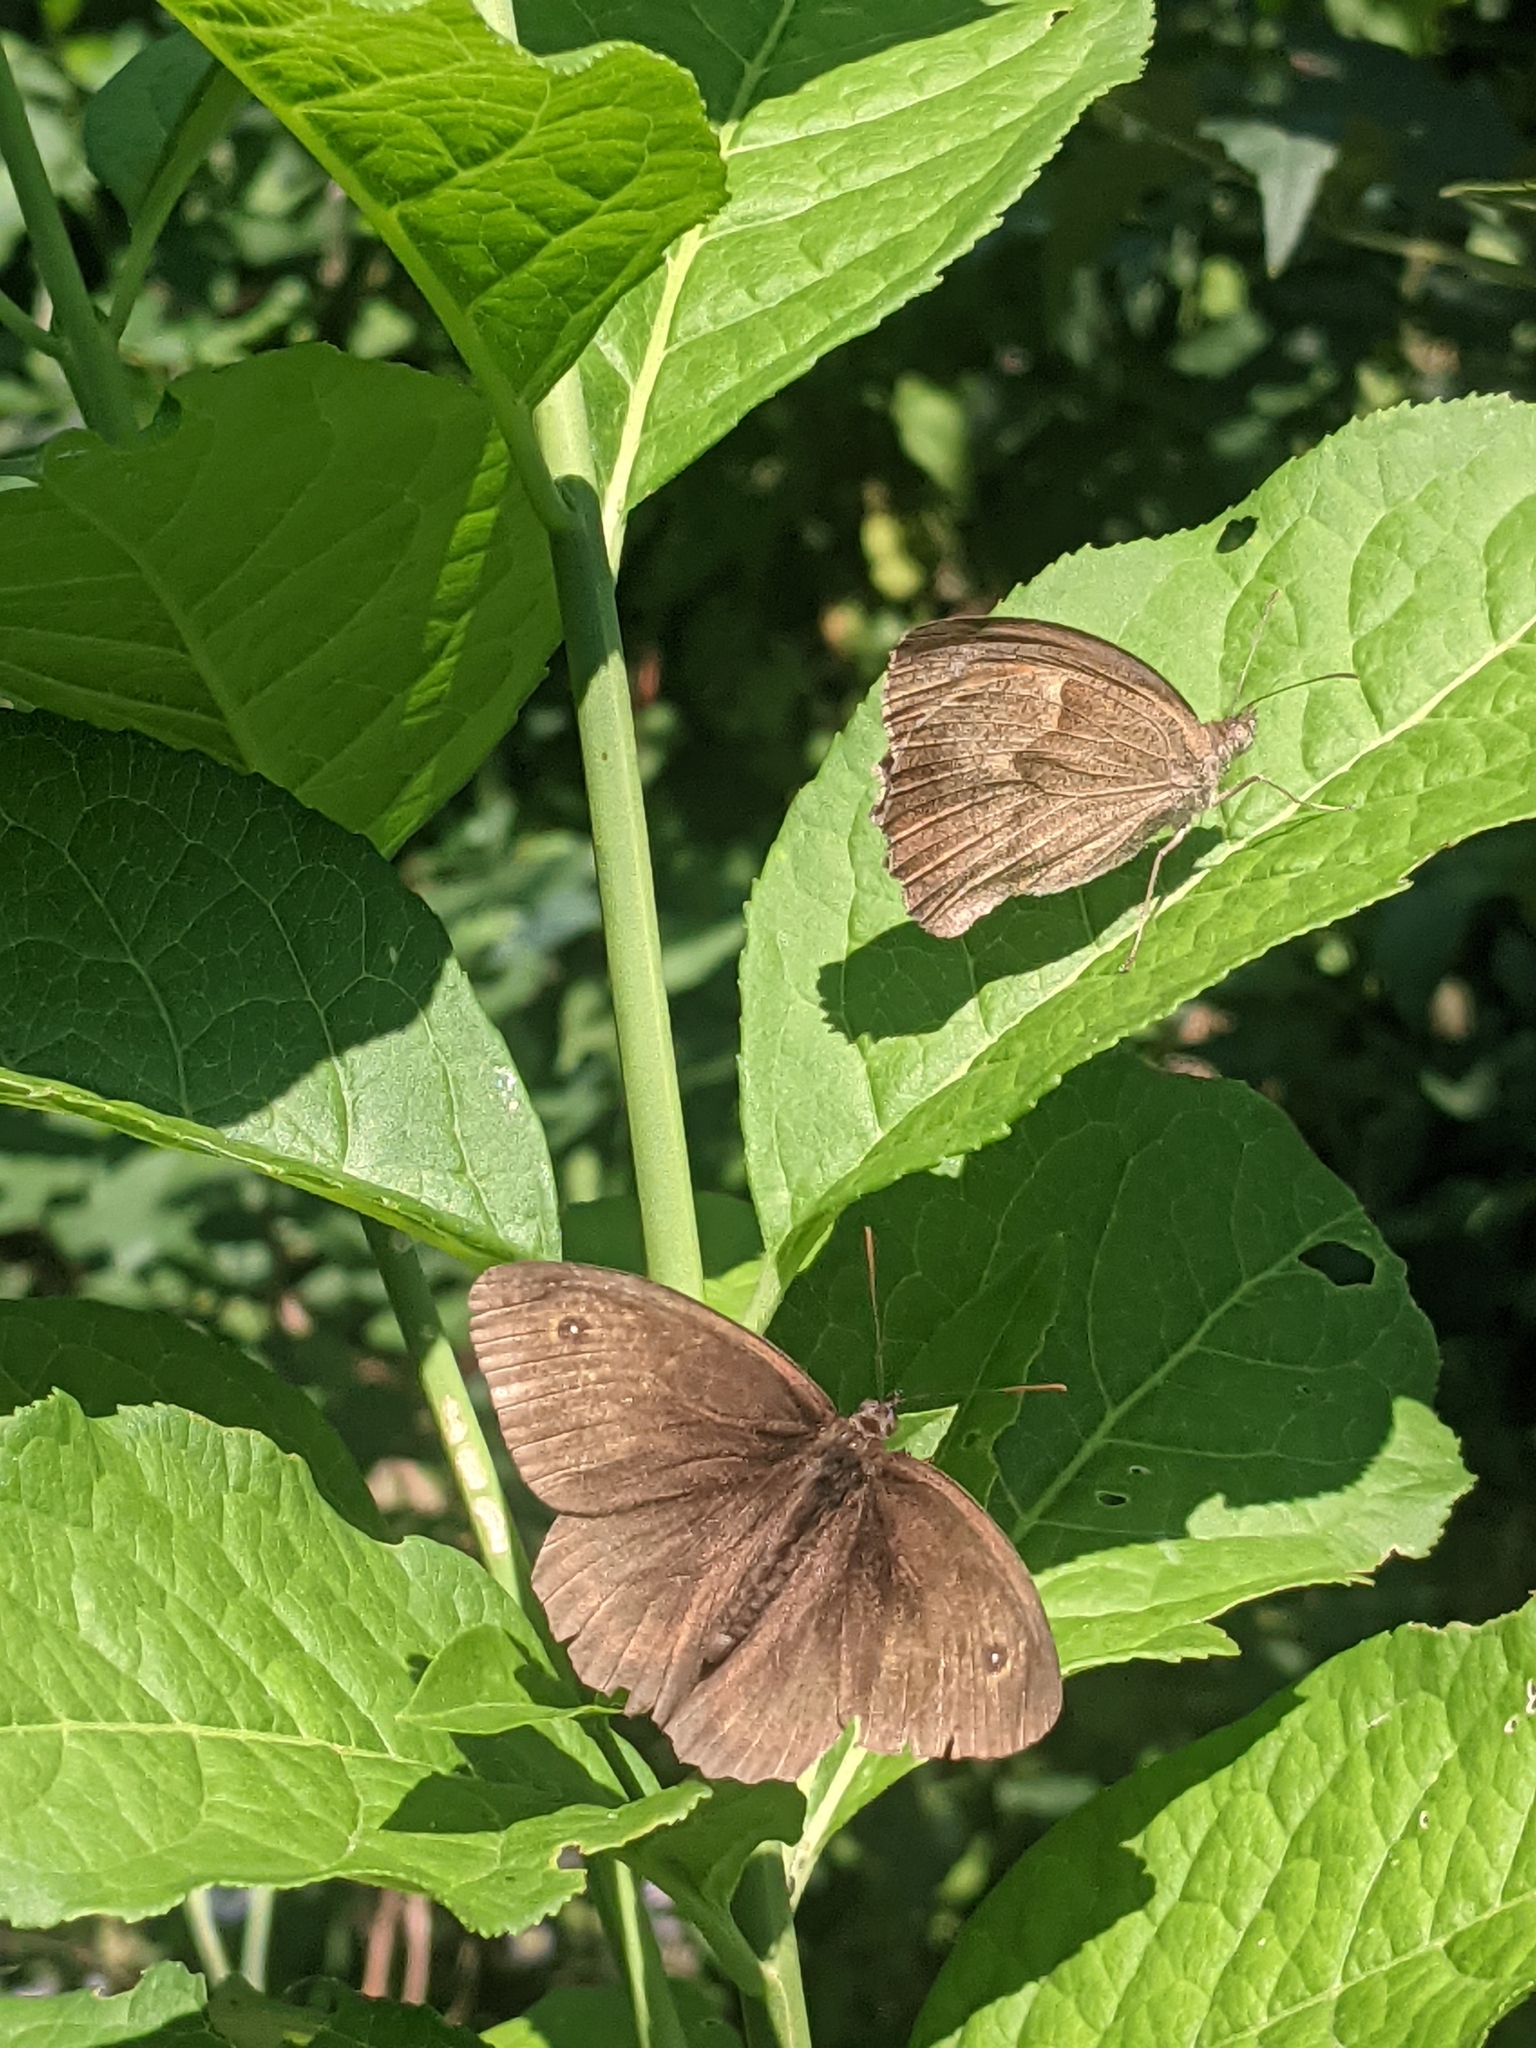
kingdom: Animalia
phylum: Arthropoda
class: Insecta
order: Lepidoptera
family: Nymphalidae
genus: Maniola
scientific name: Maniola jurtina
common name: Meadow brown
